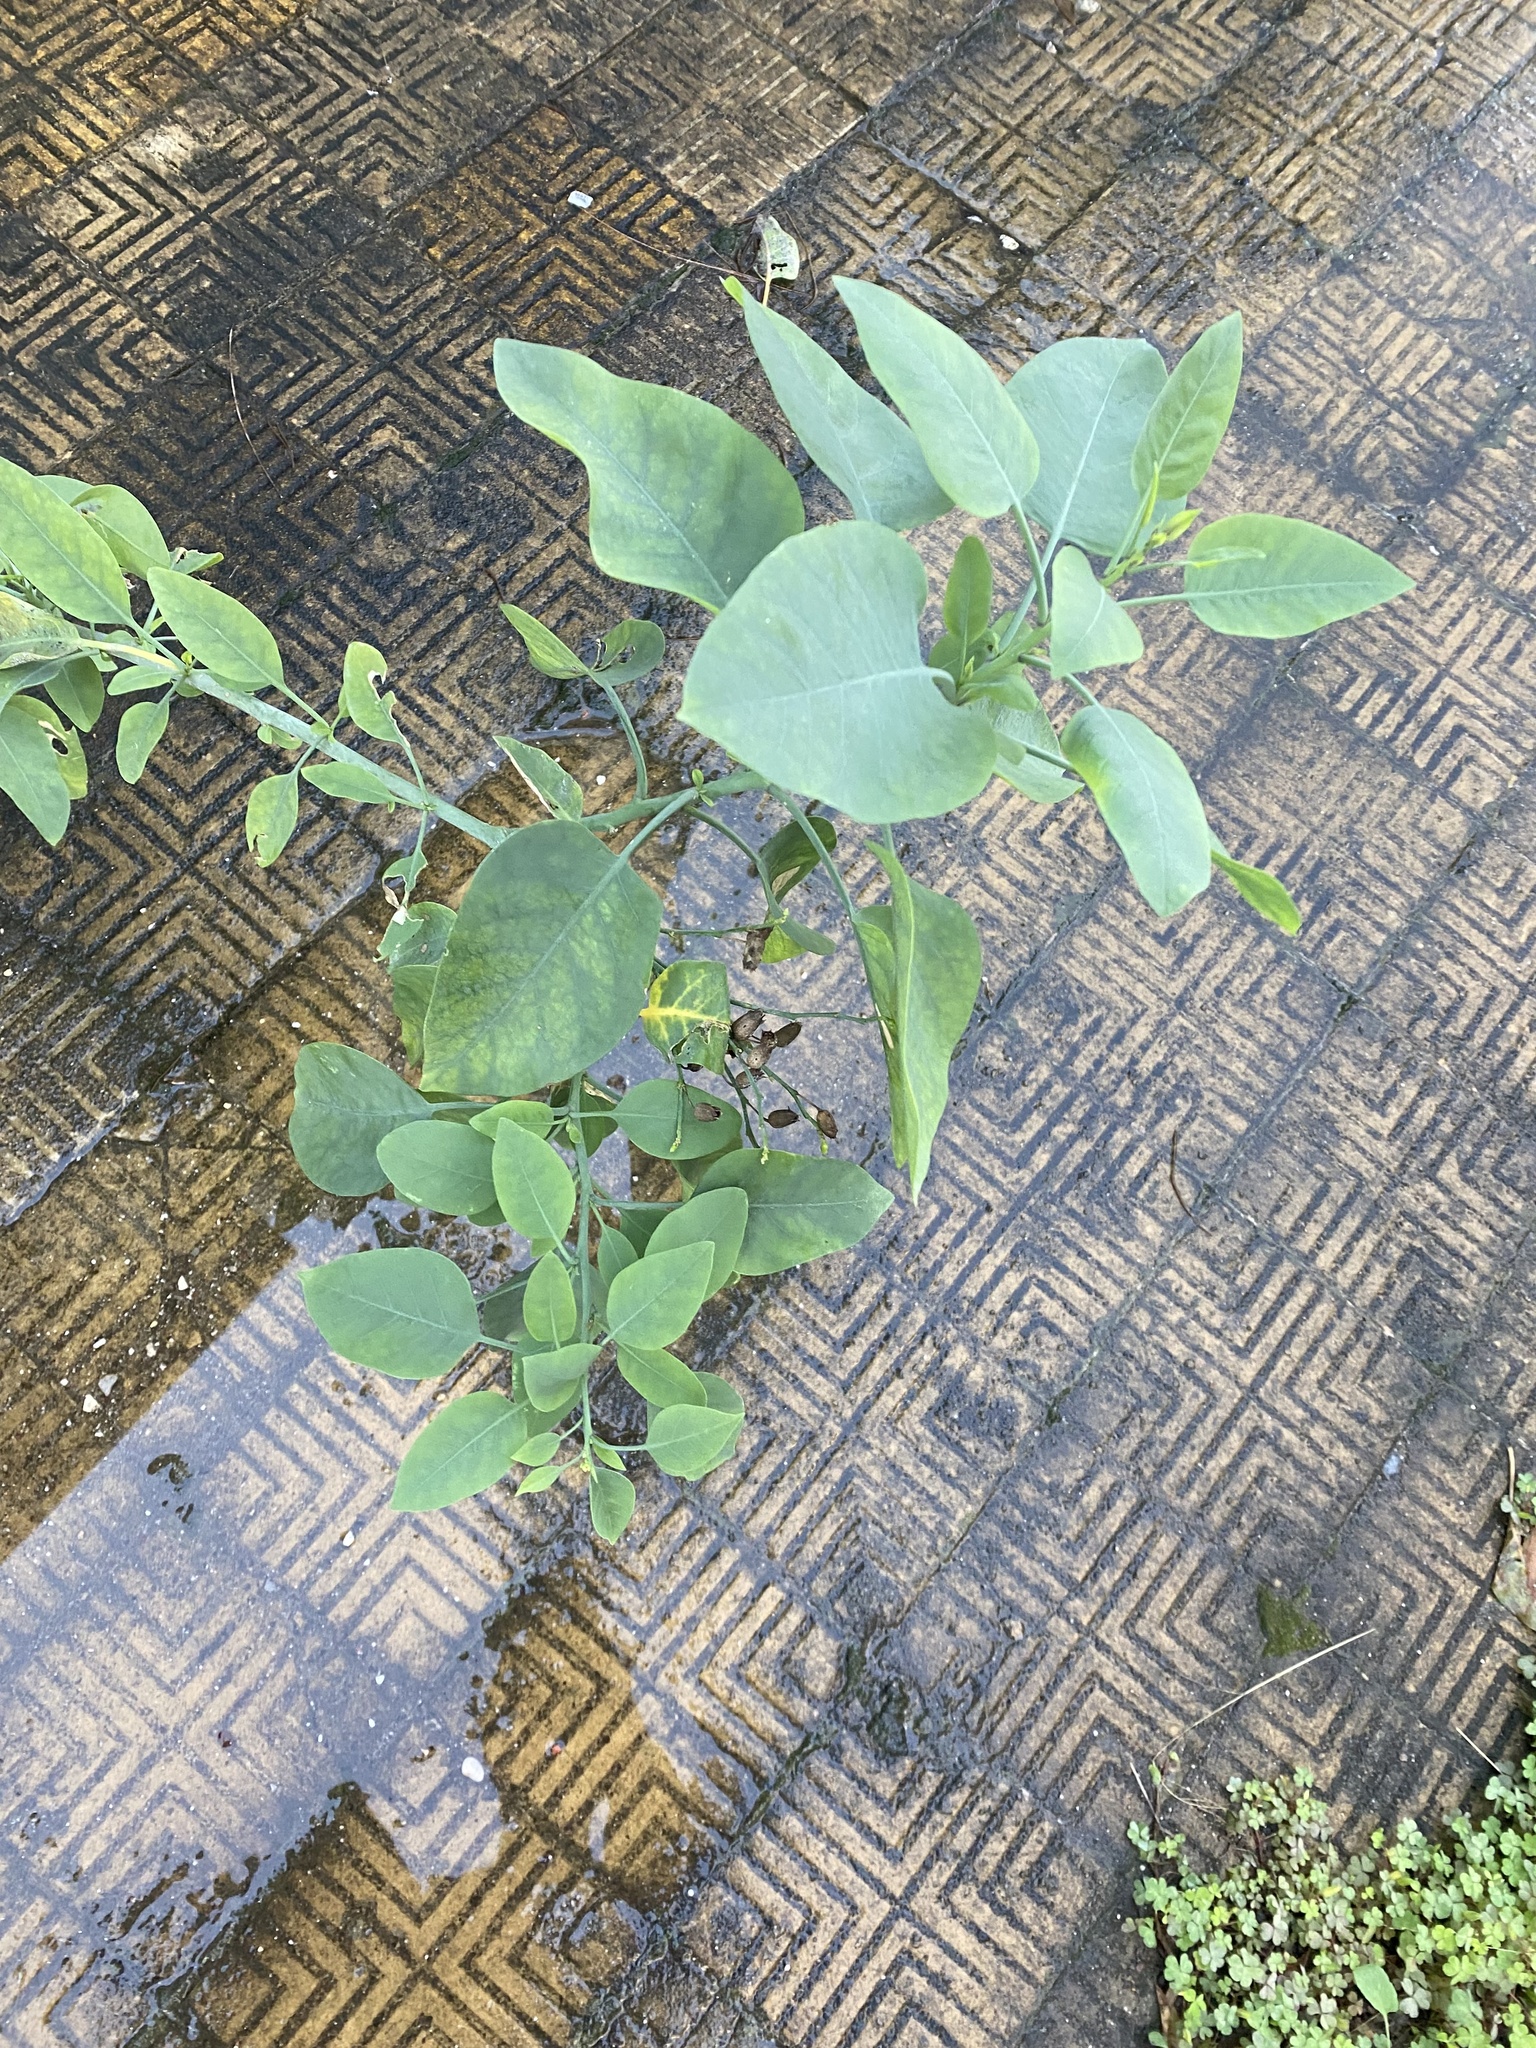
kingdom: Plantae
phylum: Tracheophyta
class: Magnoliopsida
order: Solanales
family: Solanaceae
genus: Nicotiana
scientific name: Nicotiana glauca
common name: Tree tobacco
